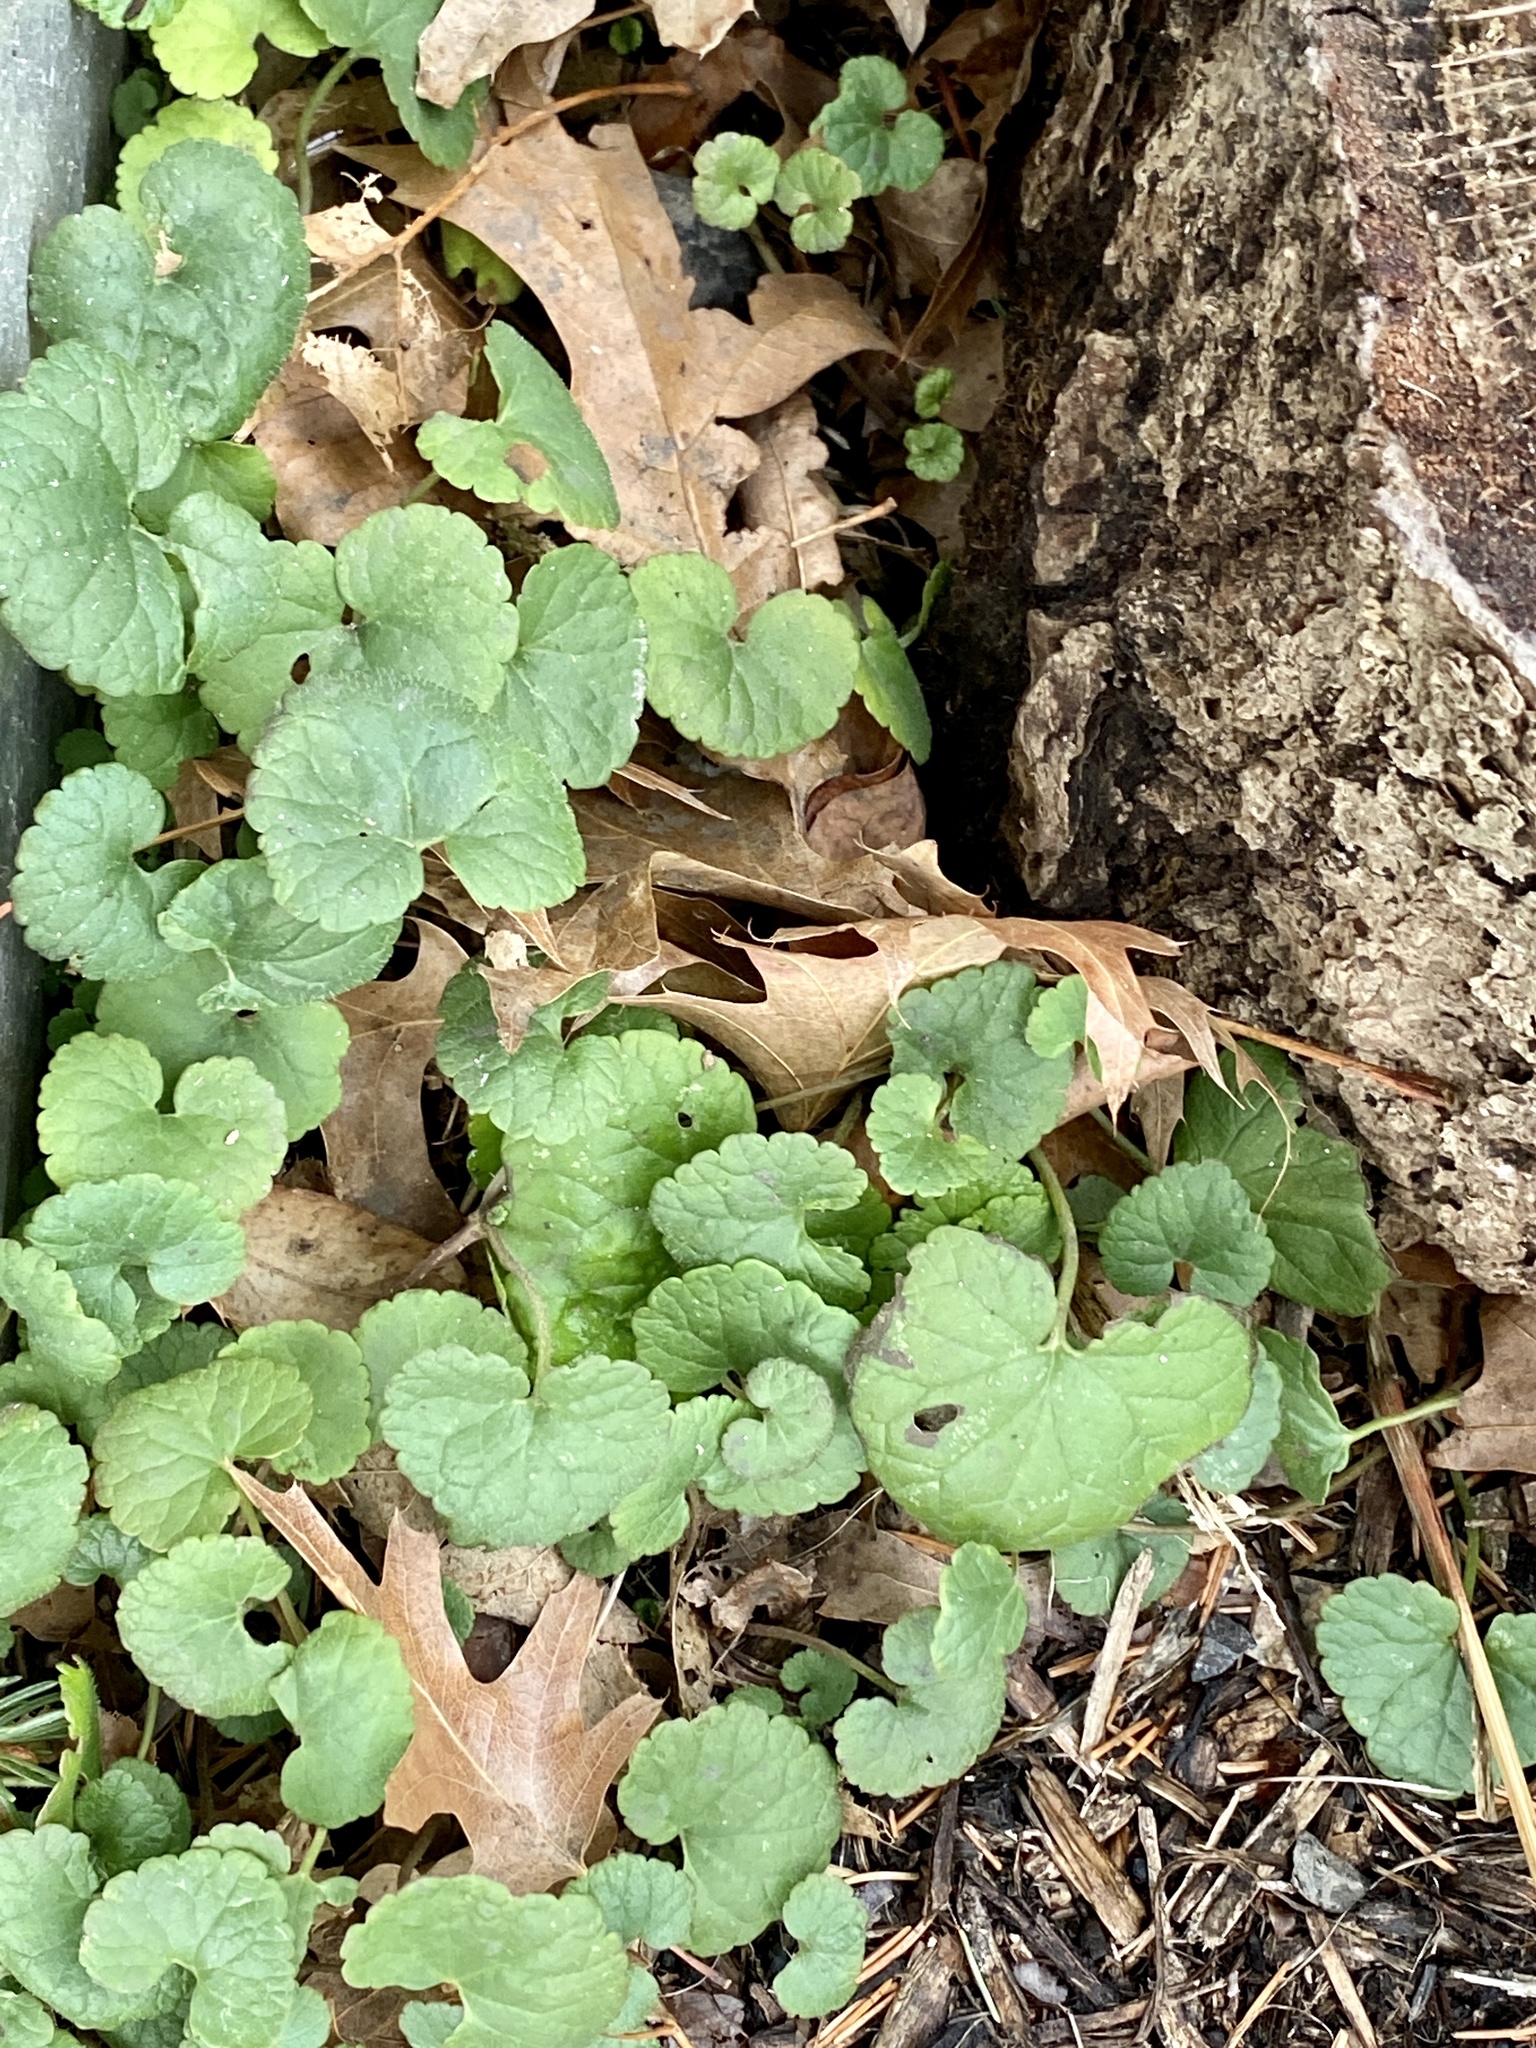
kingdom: Plantae
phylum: Tracheophyta
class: Magnoliopsida
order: Lamiales
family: Lamiaceae
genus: Glechoma
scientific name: Glechoma hederacea
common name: Ground ivy
